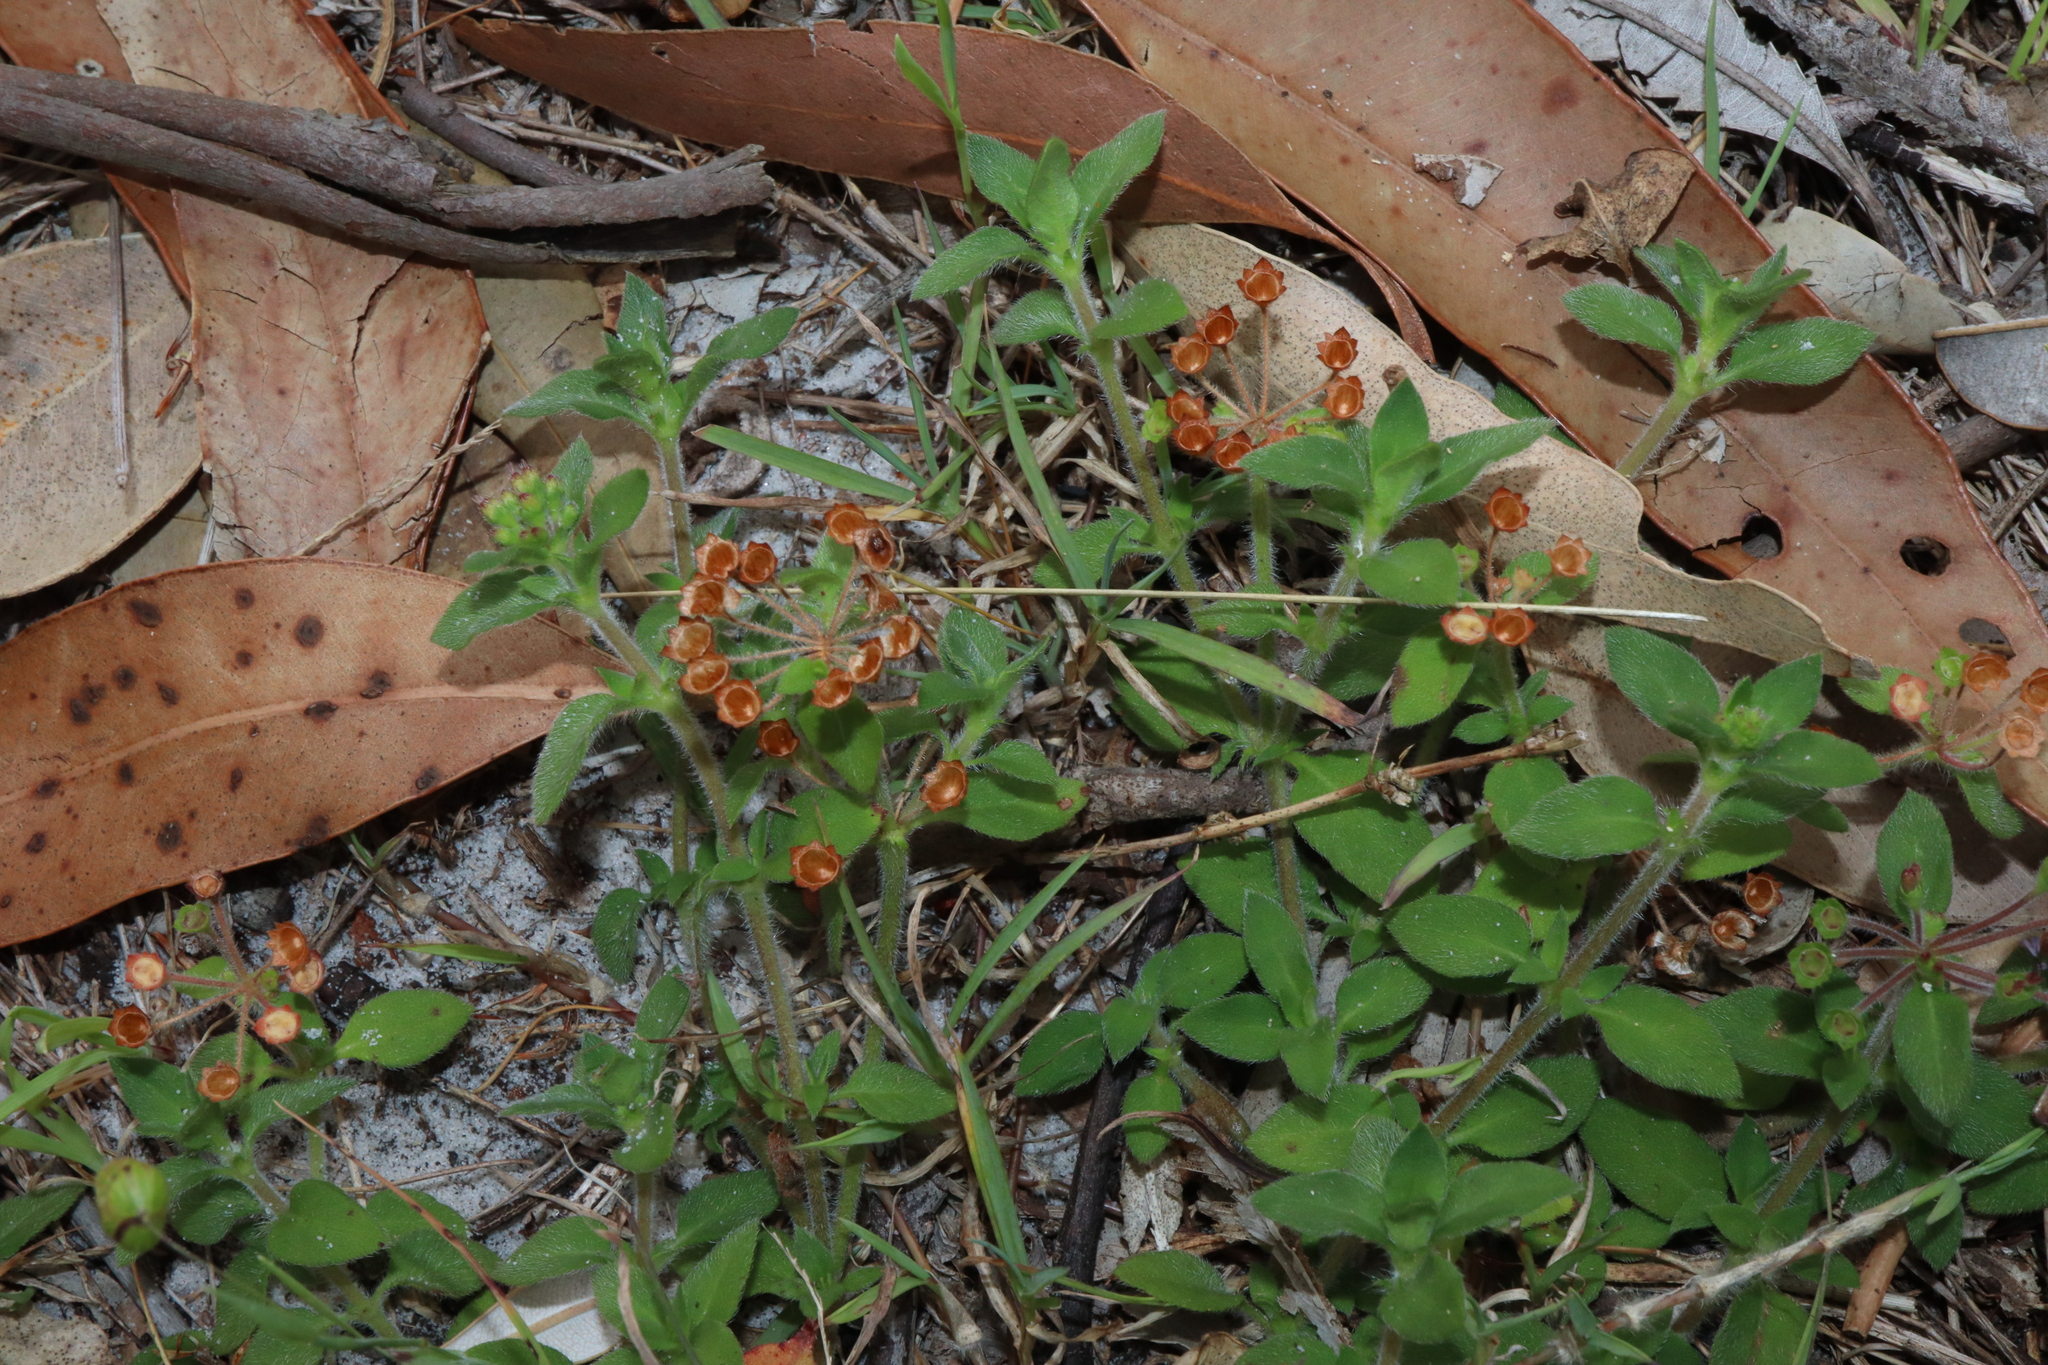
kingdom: Plantae
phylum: Tracheophyta
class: Magnoliopsida
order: Gentianales
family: Rubiaceae
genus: Pomax
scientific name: Pomax umbellata
